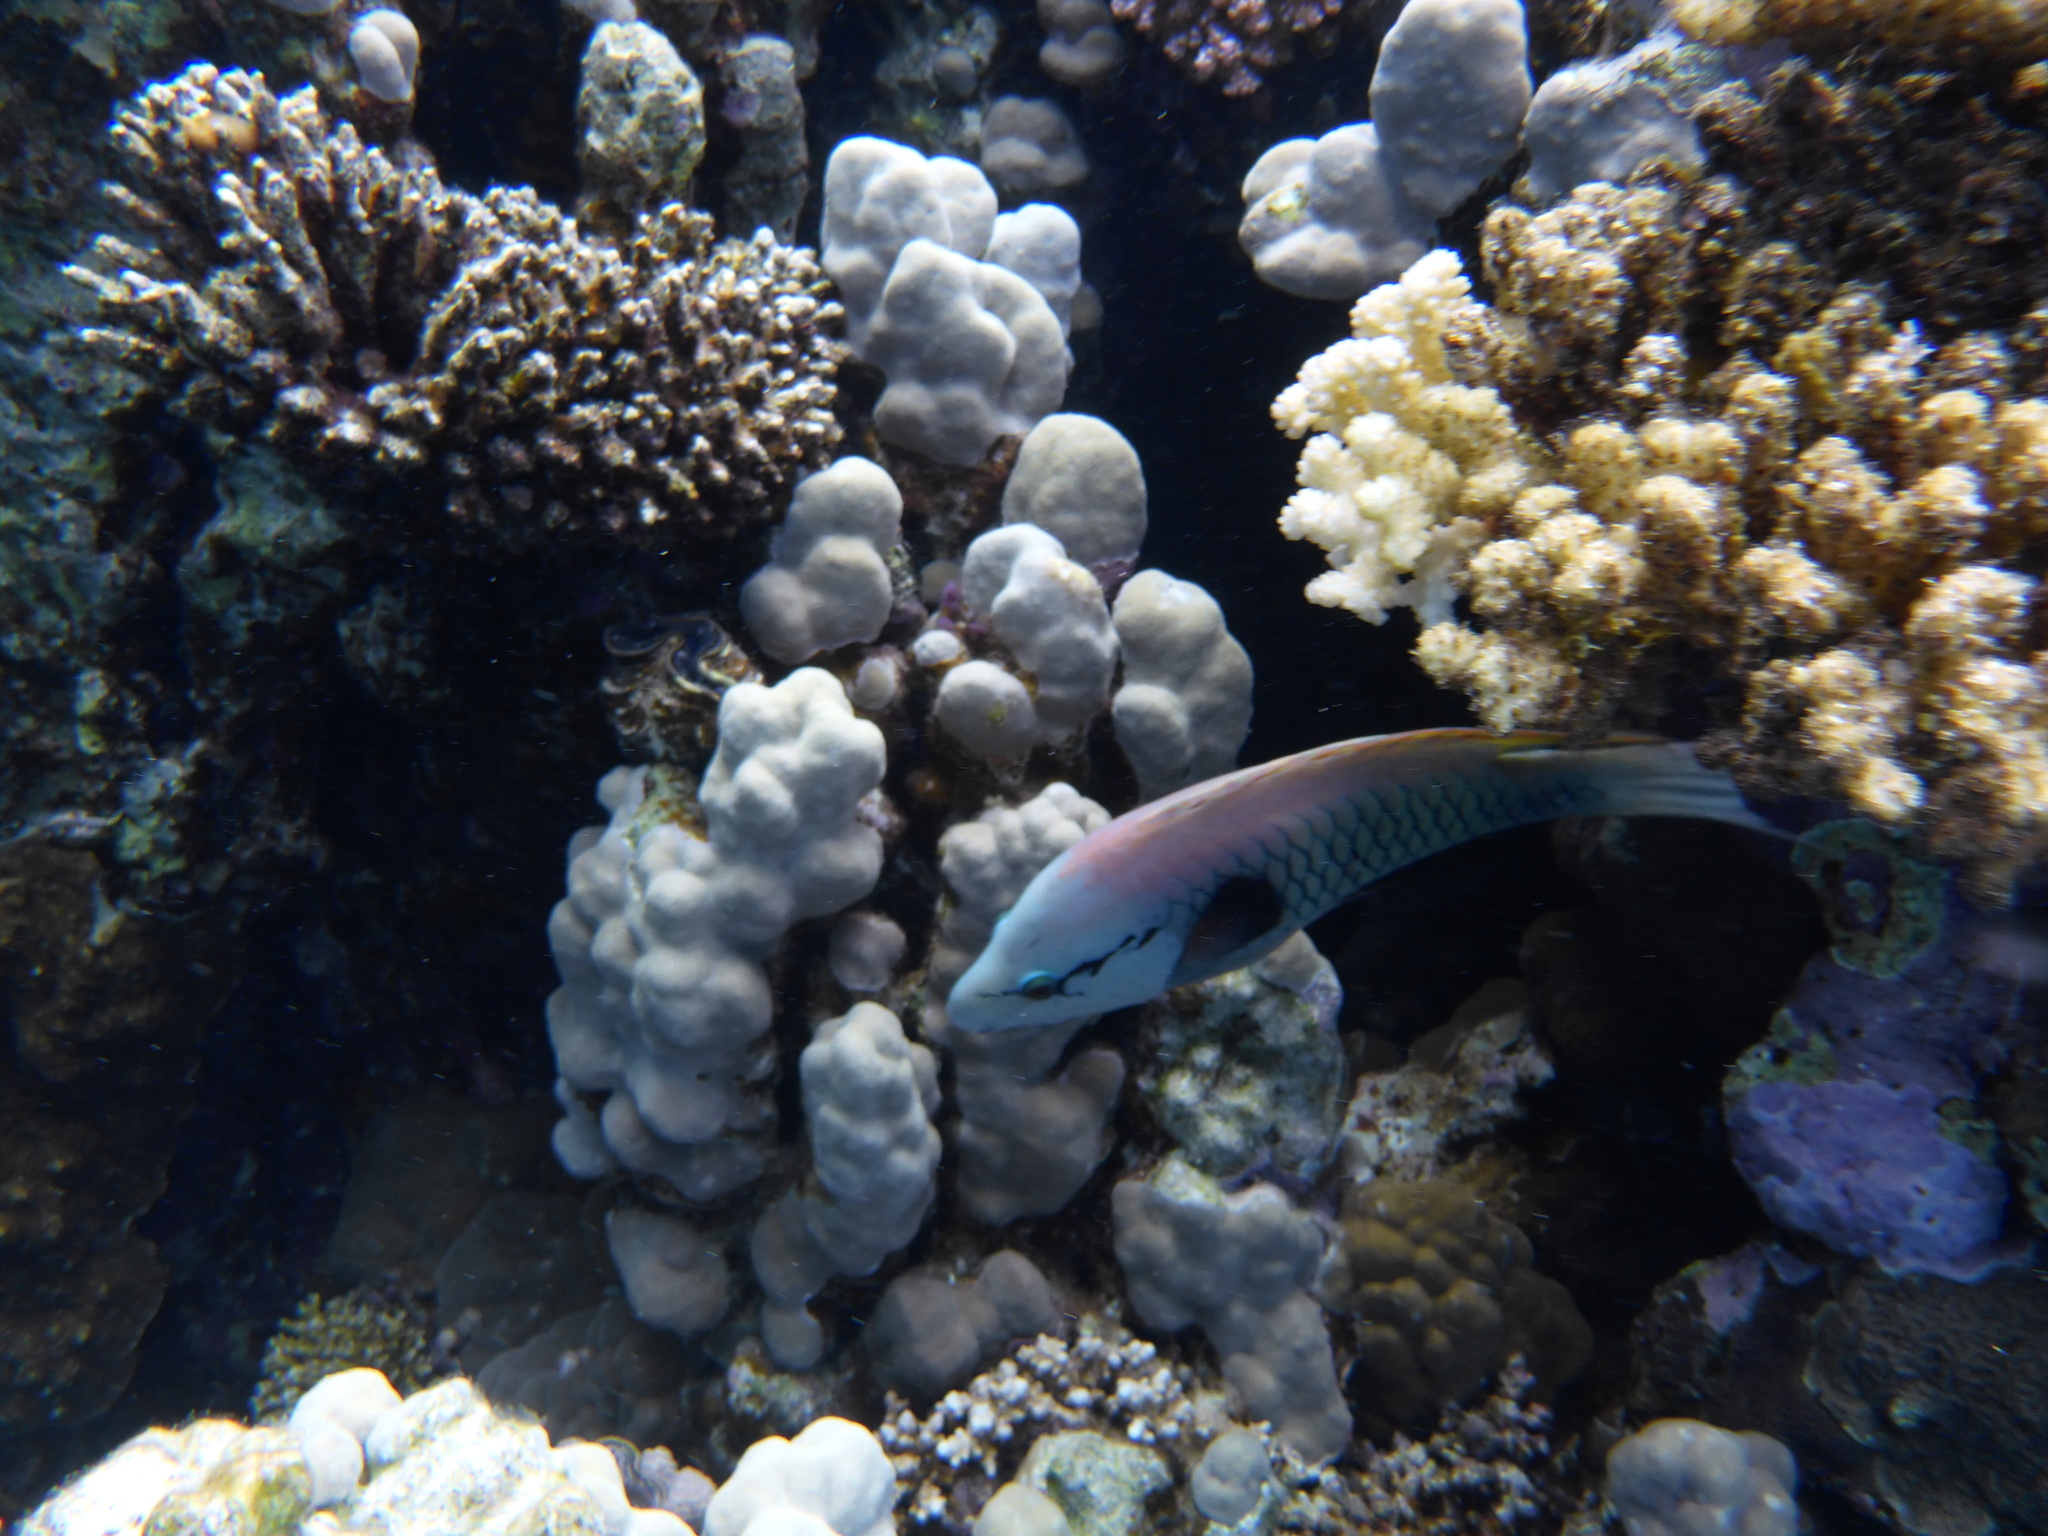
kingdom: Animalia
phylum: Chordata
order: Perciformes
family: Labridae
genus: Epibulus
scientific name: Epibulus insidiator
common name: Slingjaw wrasse
